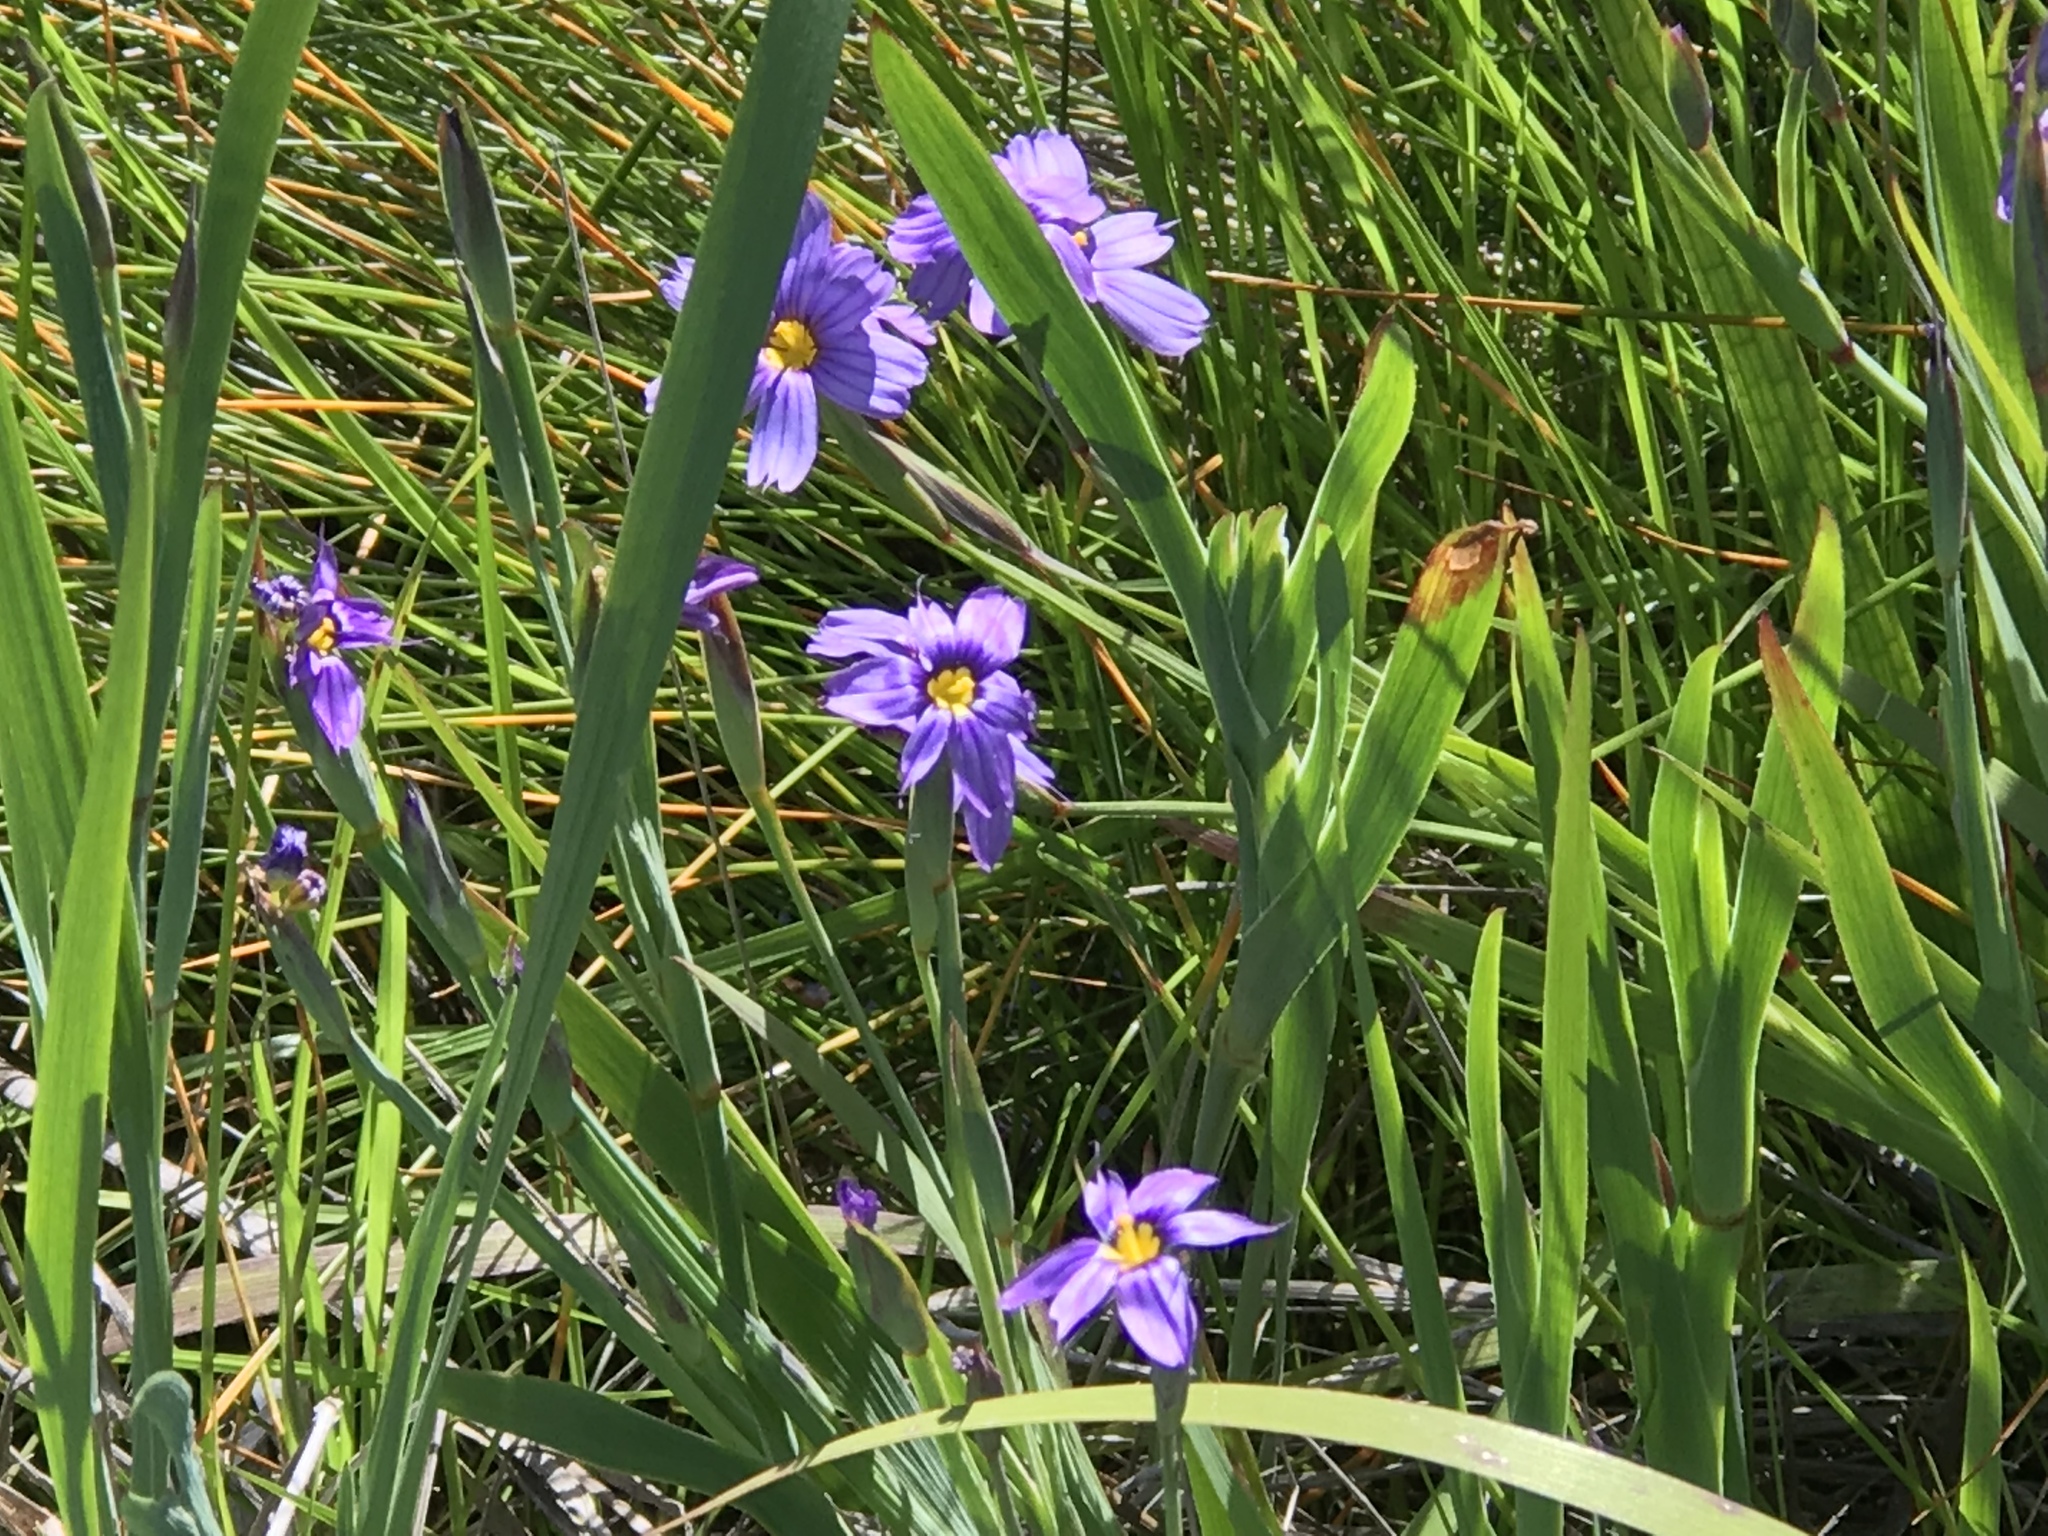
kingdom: Plantae
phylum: Tracheophyta
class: Liliopsida
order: Asparagales
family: Iridaceae
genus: Sisyrinchium
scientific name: Sisyrinchium bellum
